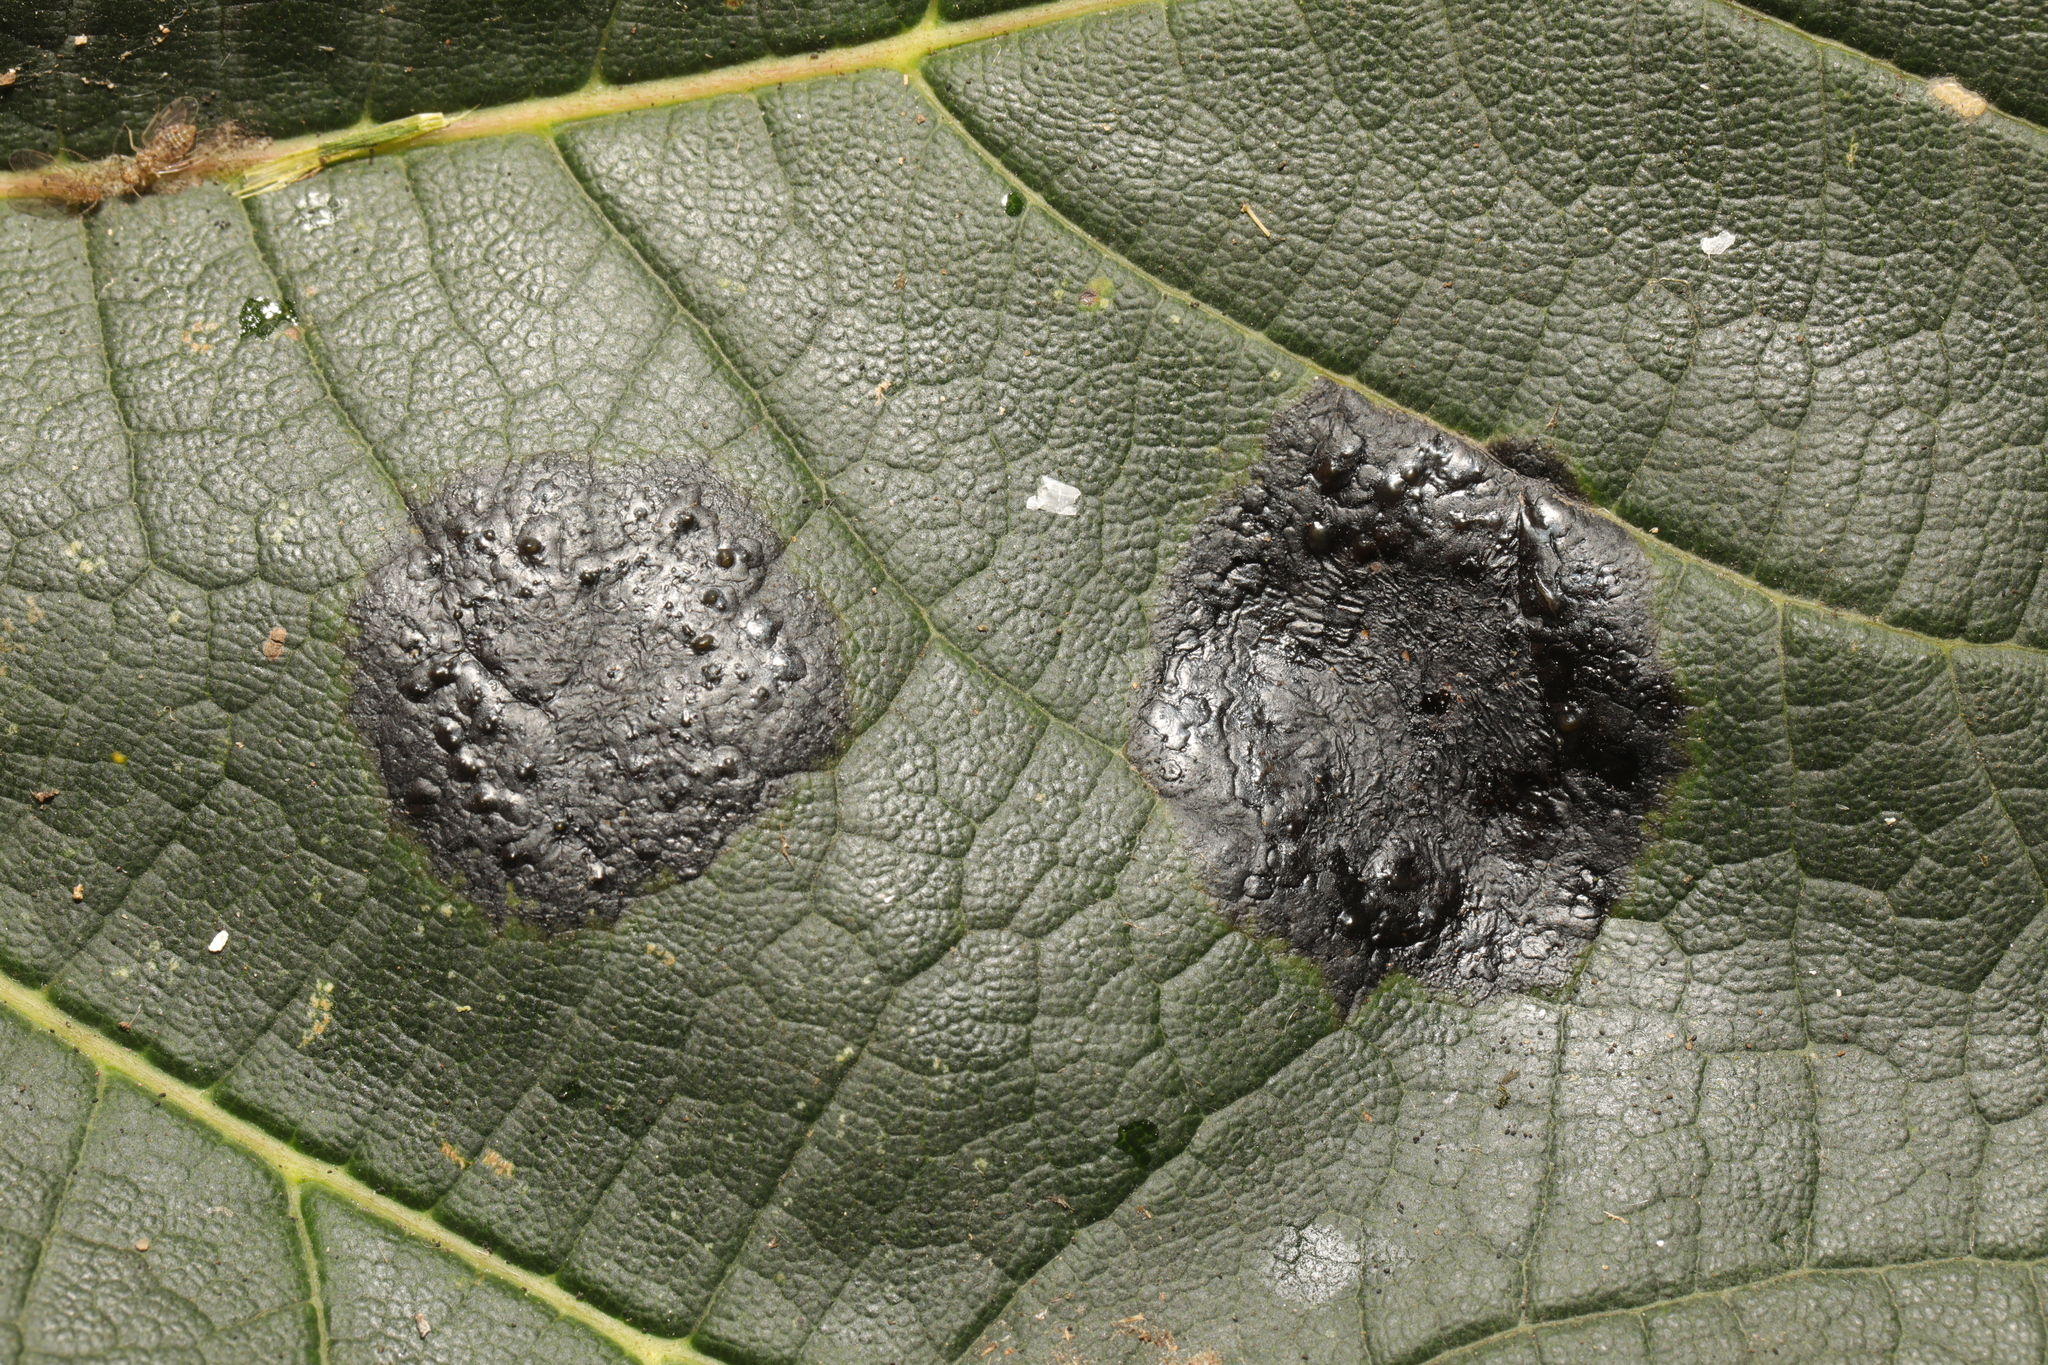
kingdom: Fungi
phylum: Ascomycota
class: Leotiomycetes
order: Rhytismatales
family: Rhytismataceae
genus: Rhytisma
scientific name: Rhytisma acerinum
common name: European tar spot
